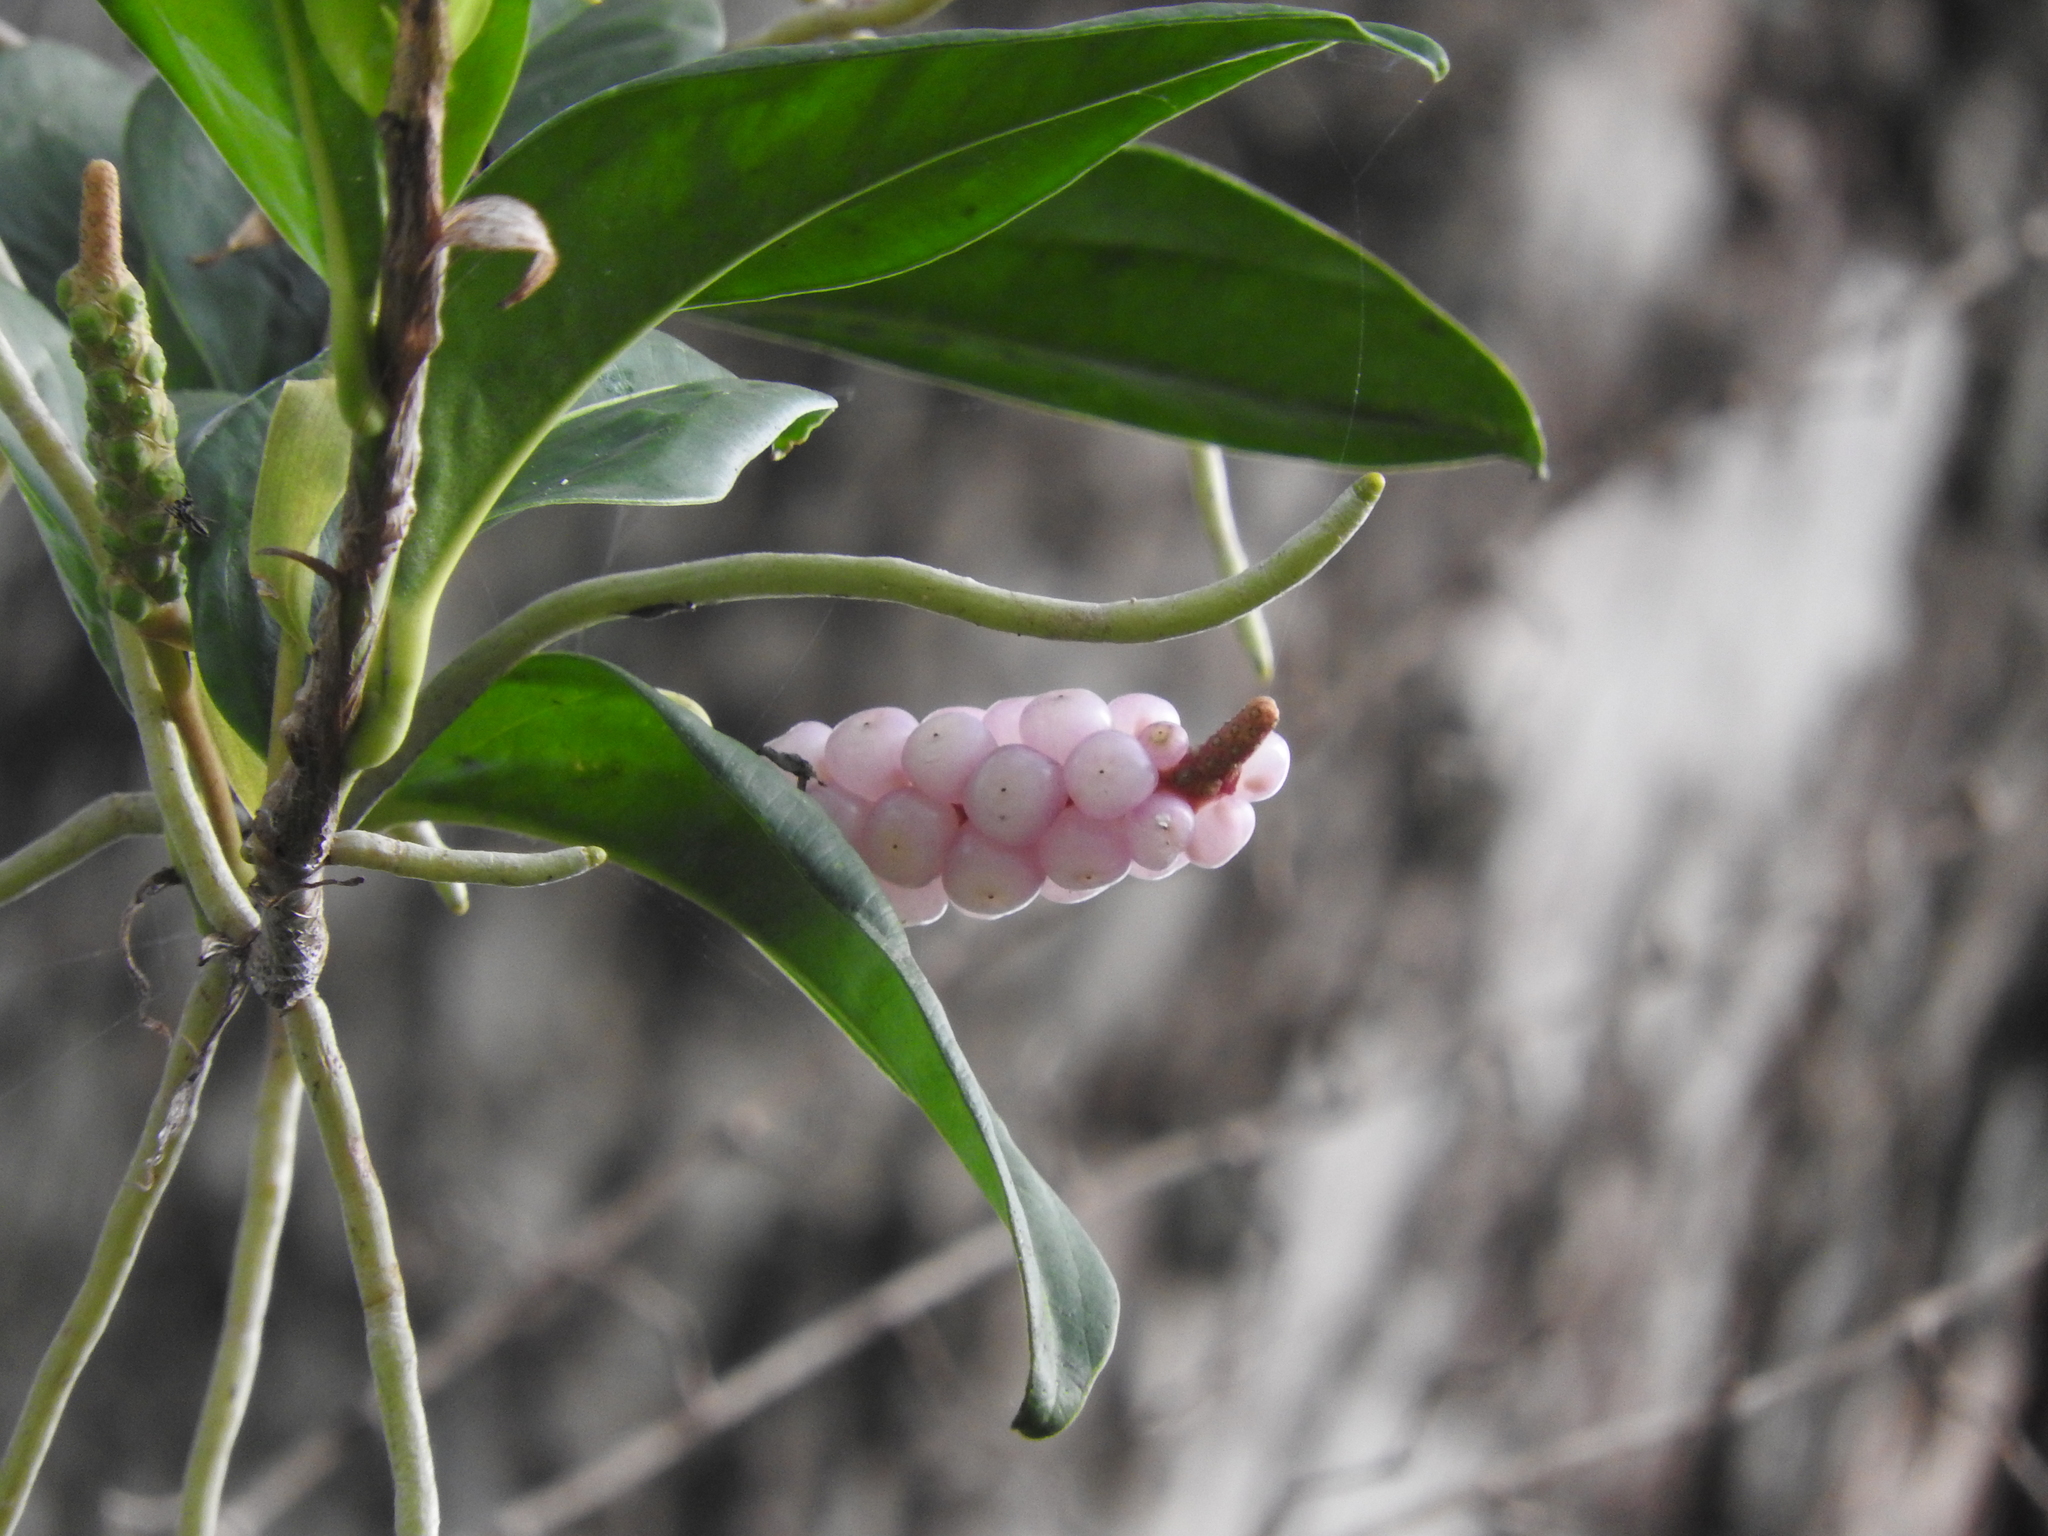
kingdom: Plantae
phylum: Tracheophyta
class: Liliopsida
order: Alismatales
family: Araceae
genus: Anthurium
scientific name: Anthurium scandens
